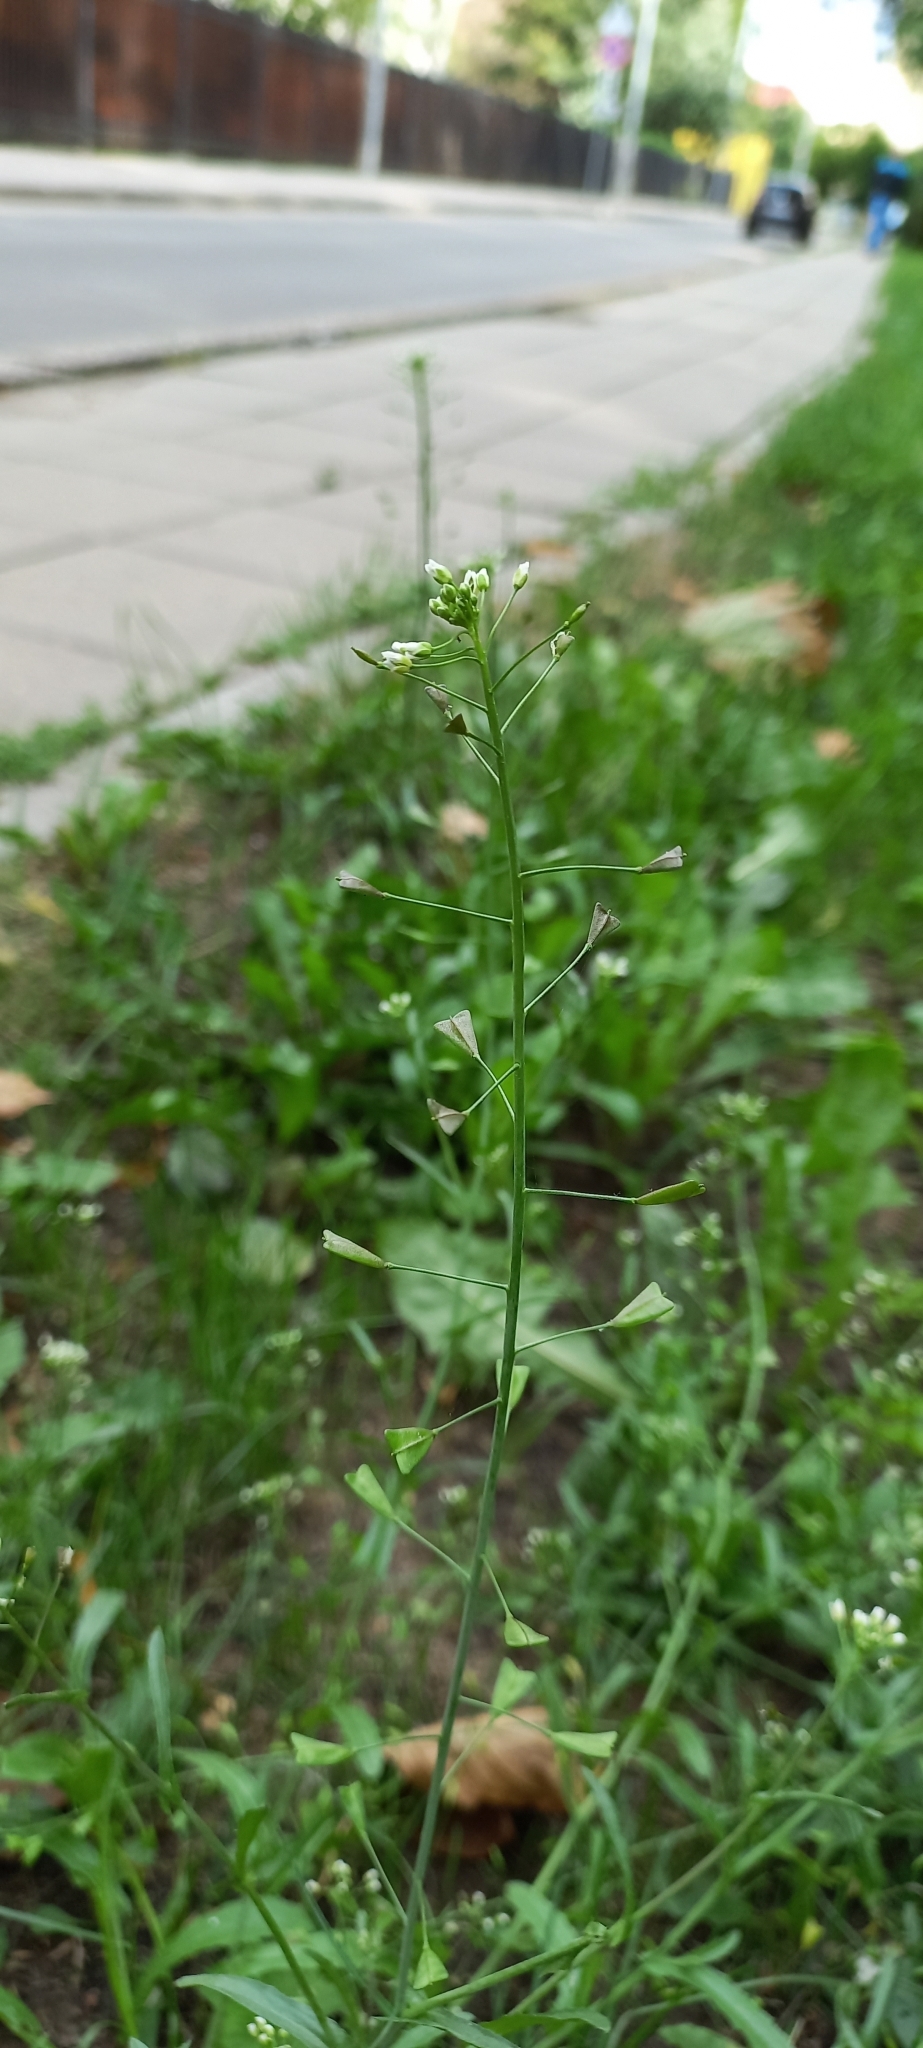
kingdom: Plantae
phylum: Tracheophyta
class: Magnoliopsida
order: Brassicales
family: Brassicaceae
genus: Capsella
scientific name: Capsella bursa-pastoris
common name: Shepherd's purse
